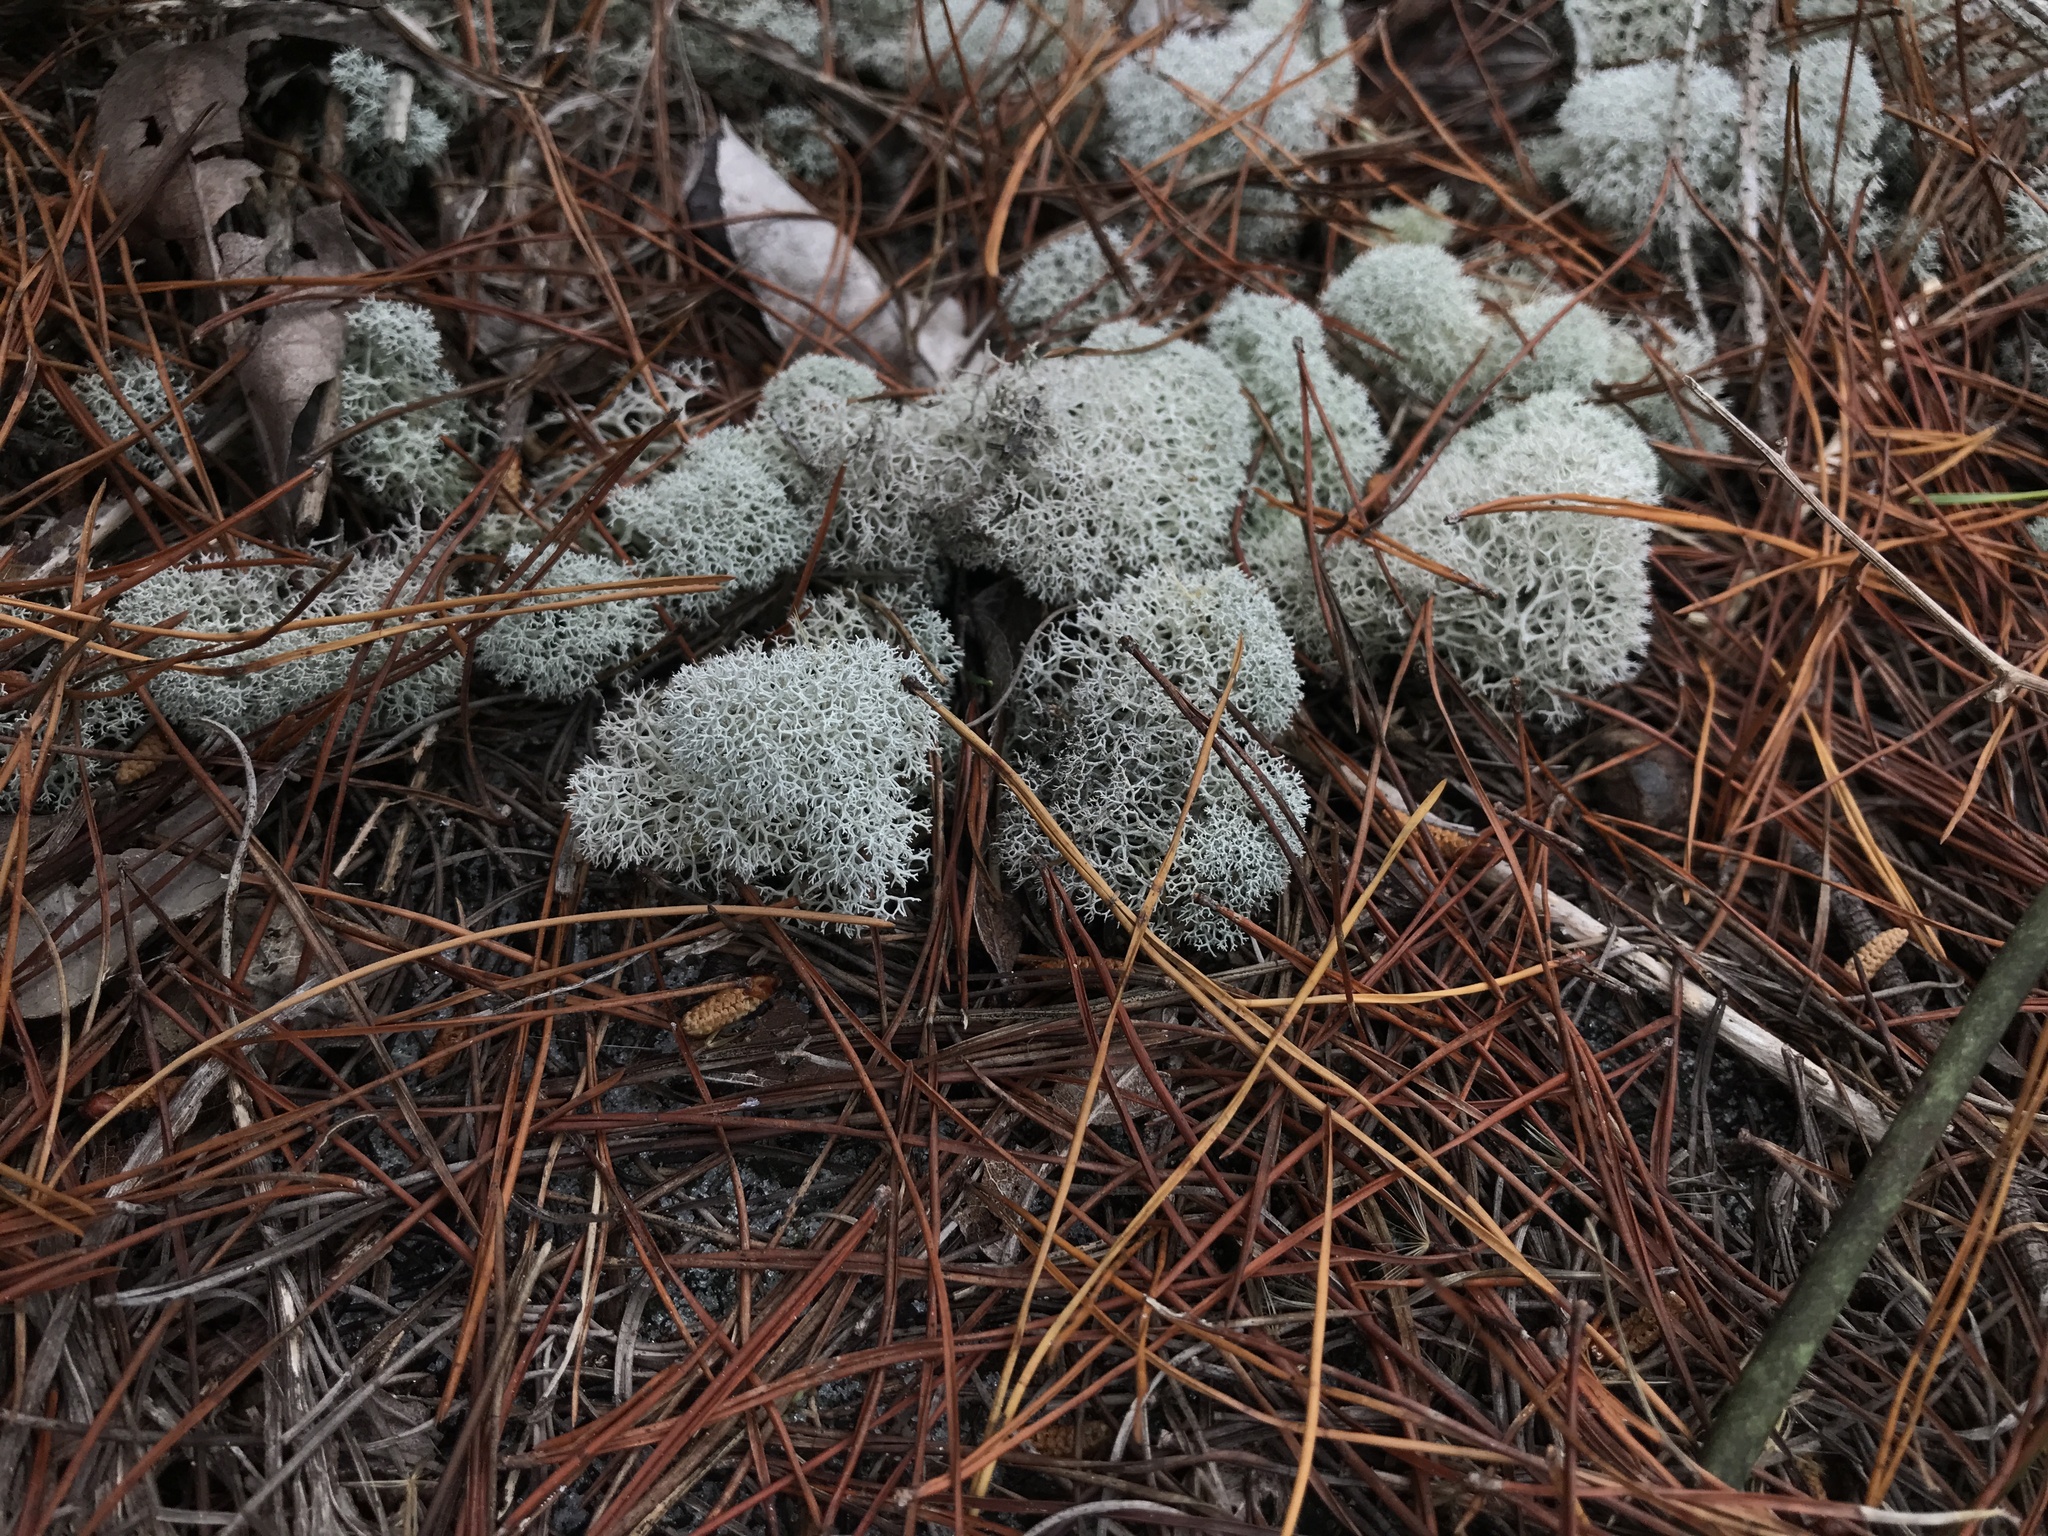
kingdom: Fungi
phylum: Ascomycota
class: Lecanoromycetes
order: Lecanorales
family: Cladoniaceae
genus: Cladonia
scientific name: Cladonia evansii
